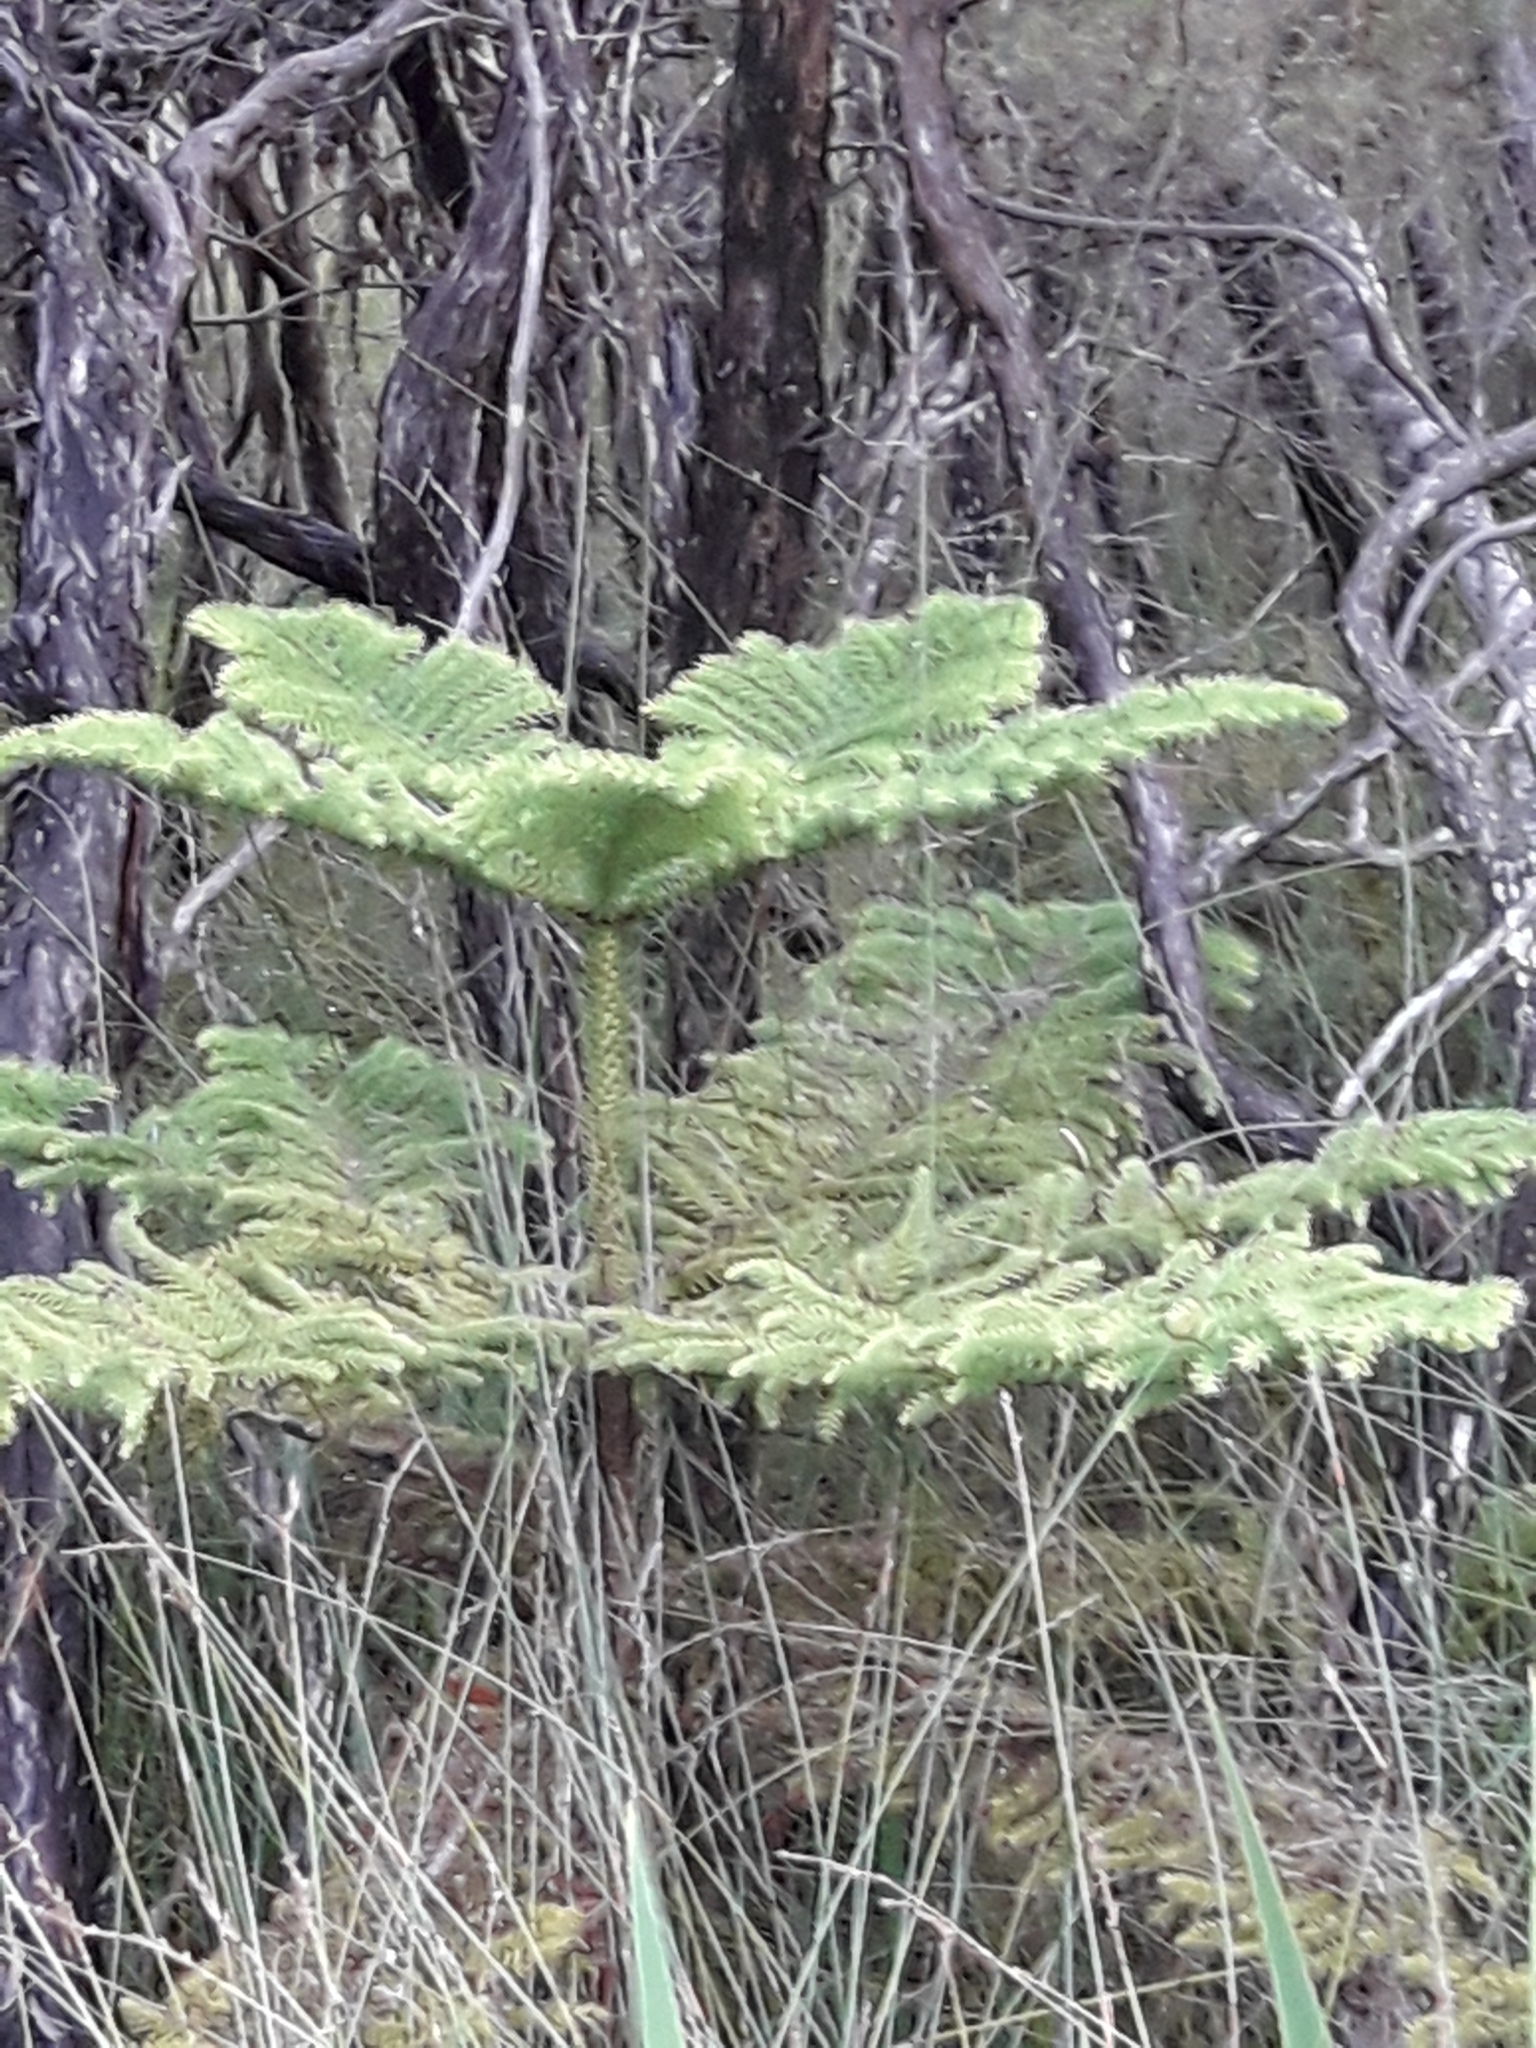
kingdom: Plantae
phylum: Tracheophyta
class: Pinopsida
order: Pinales
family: Araucariaceae
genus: Araucaria
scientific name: Araucaria heterophylla
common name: Norfolk island pine
